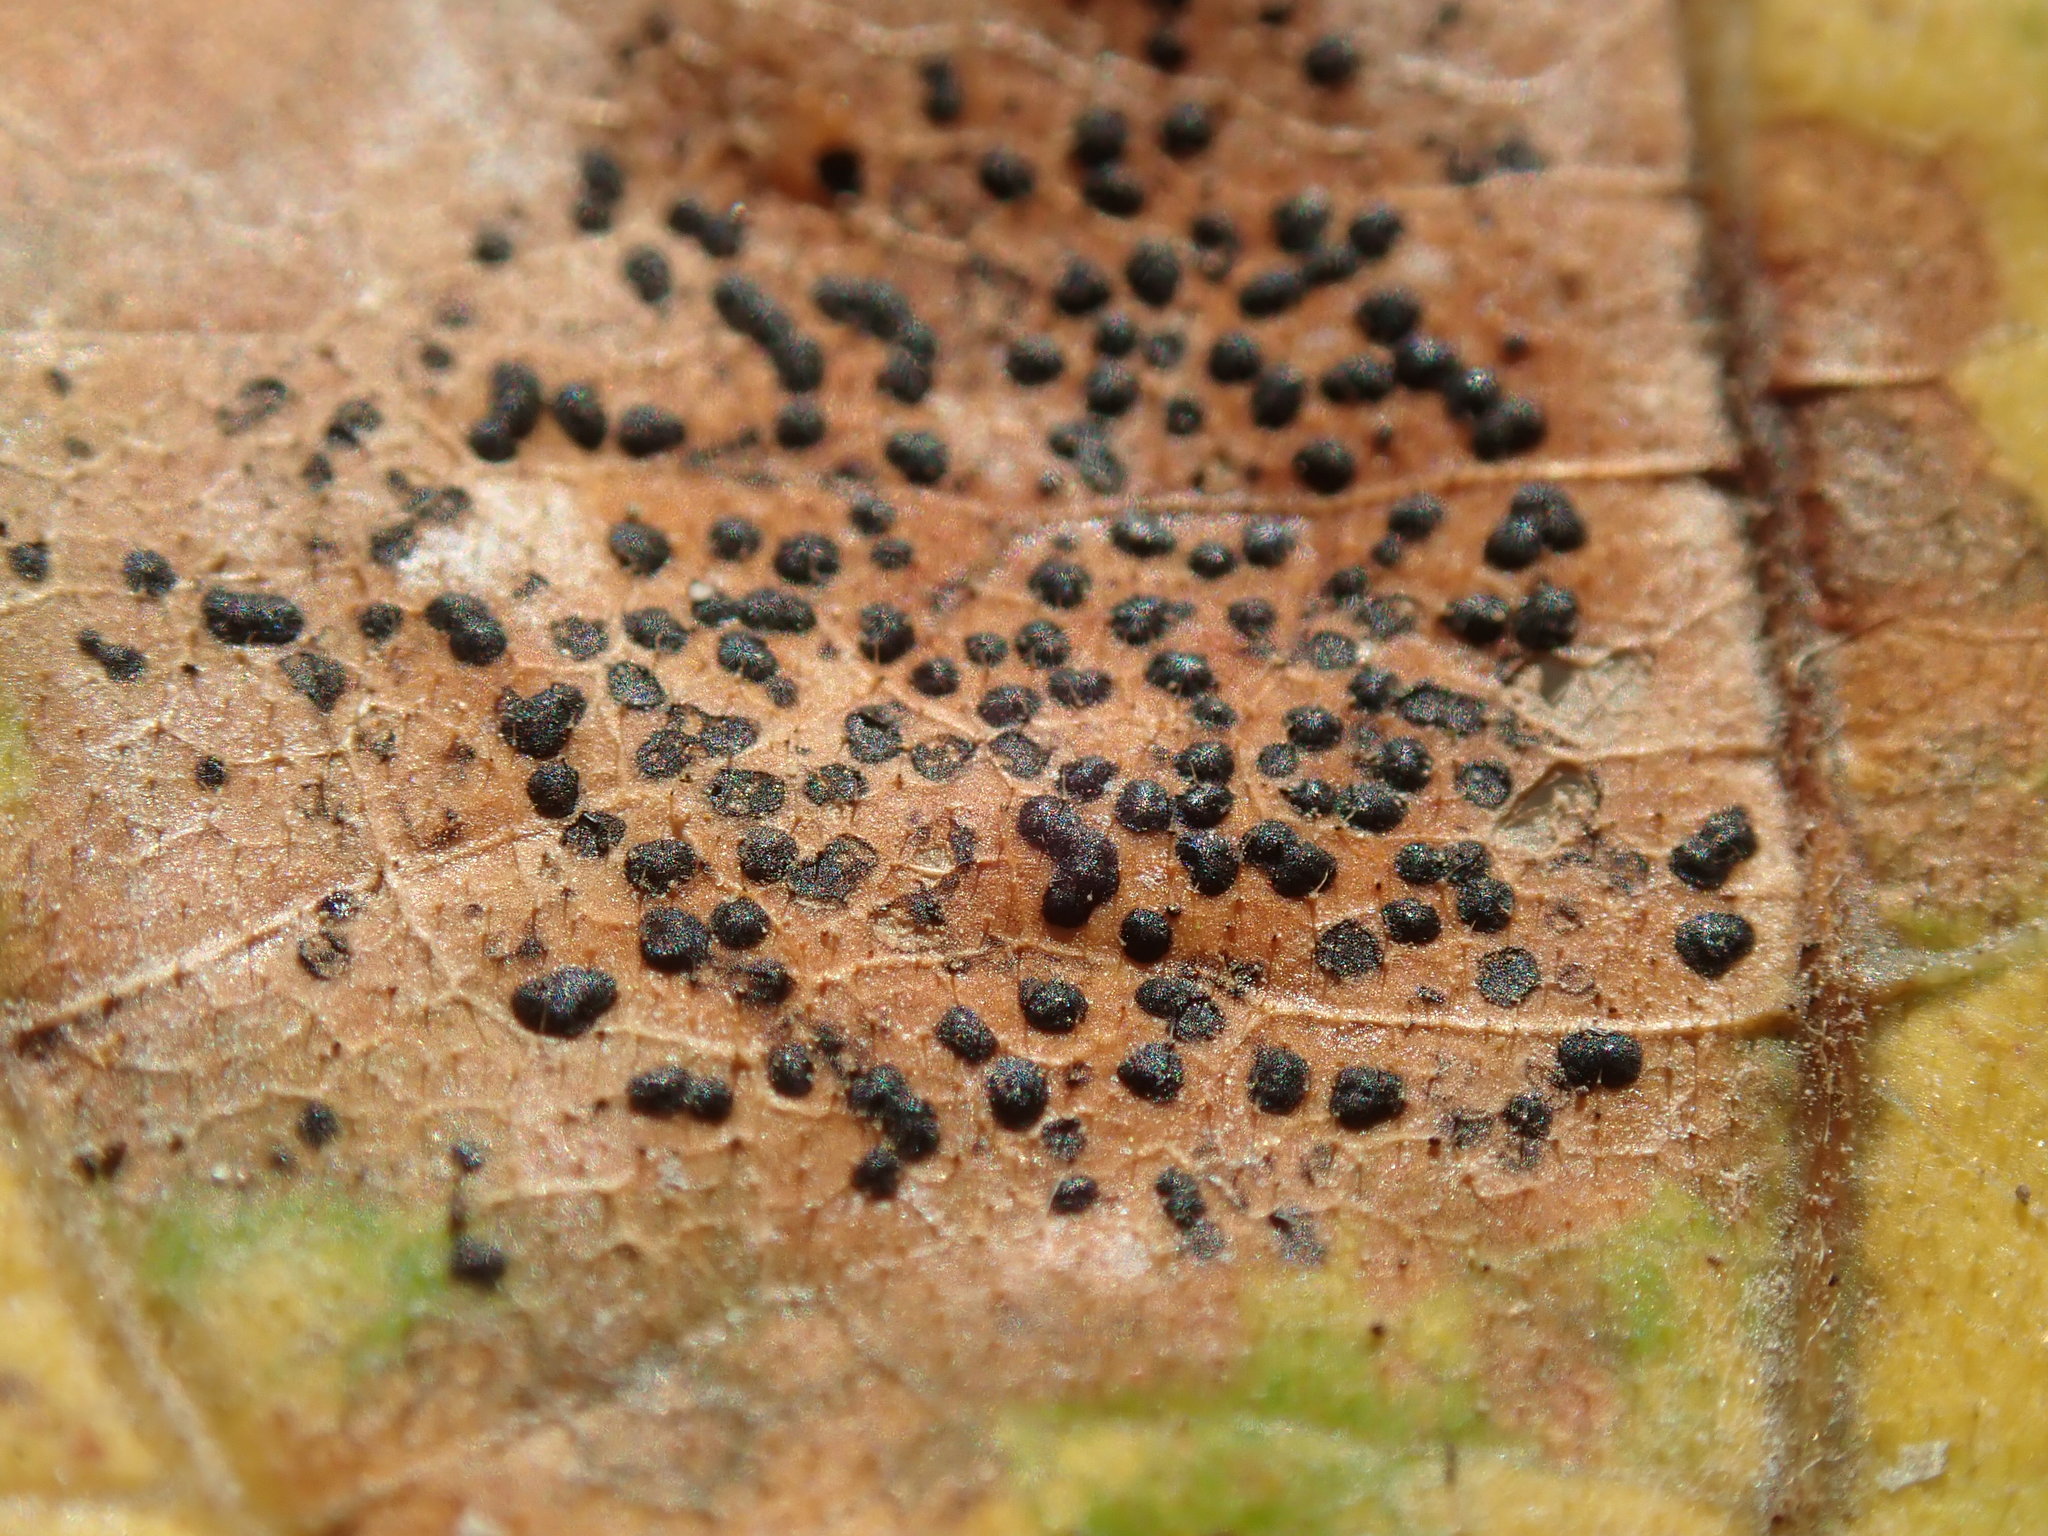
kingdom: Fungi
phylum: Ascomycota
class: Leotiomycetes
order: Rhytismatales
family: Rhytismataceae
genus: Rhytisma
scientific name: Rhytisma punctatum
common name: Speckled tar spot
